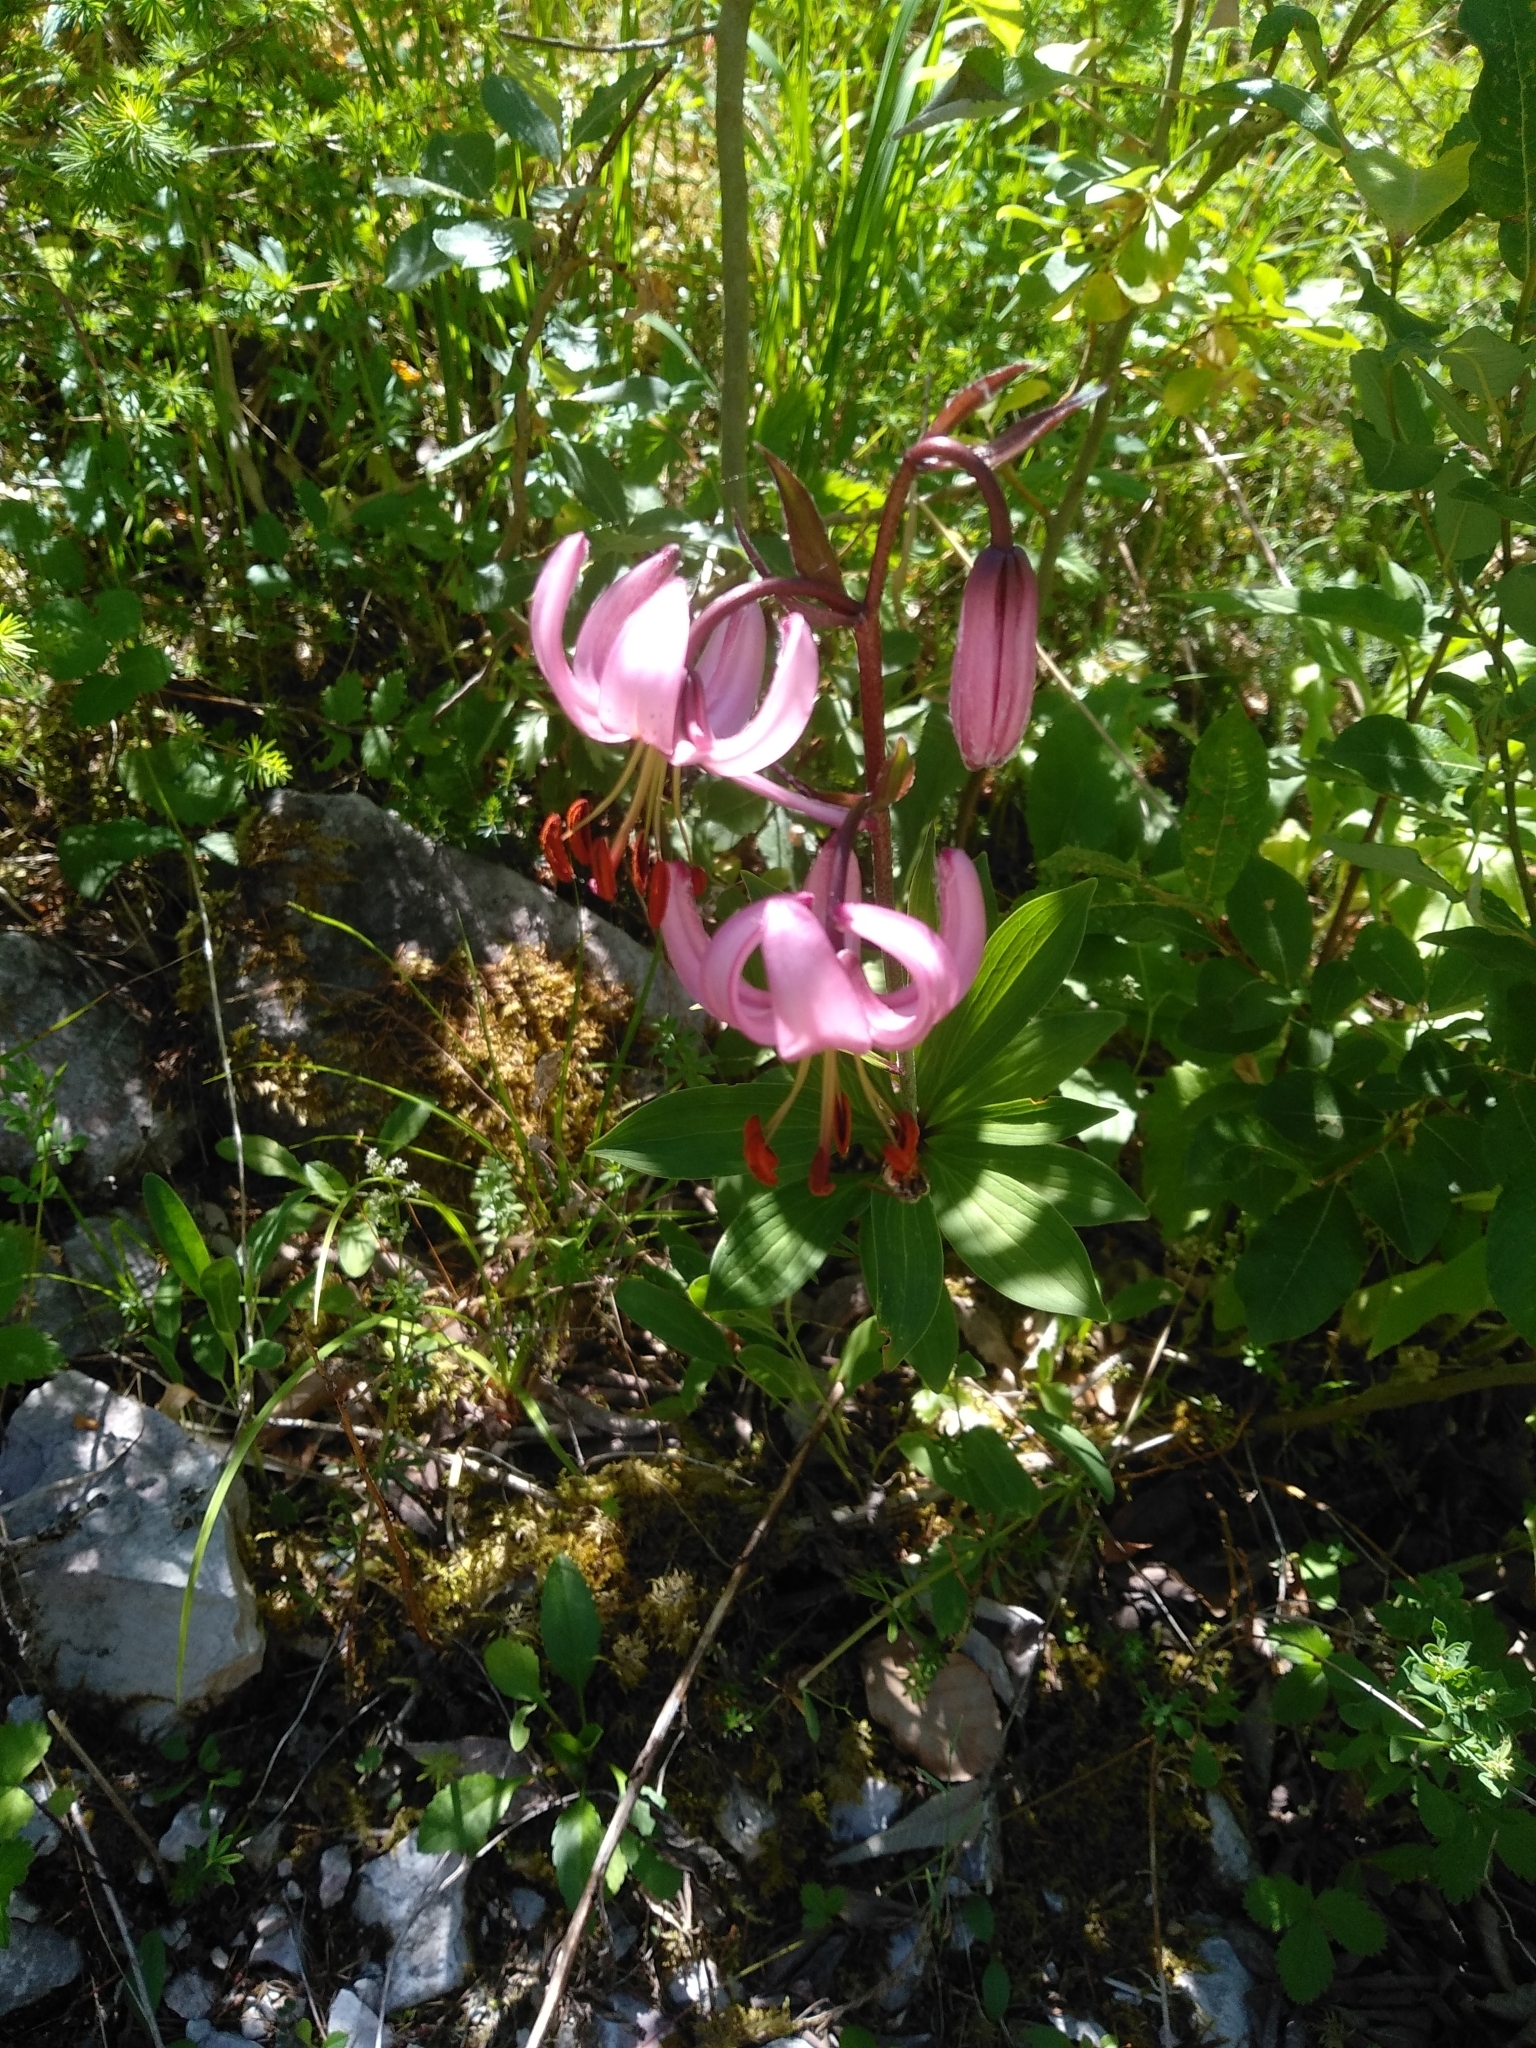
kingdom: Plantae
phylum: Tracheophyta
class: Liliopsida
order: Liliales
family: Liliaceae
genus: Lilium
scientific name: Lilium martagon
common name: Martagon lily
